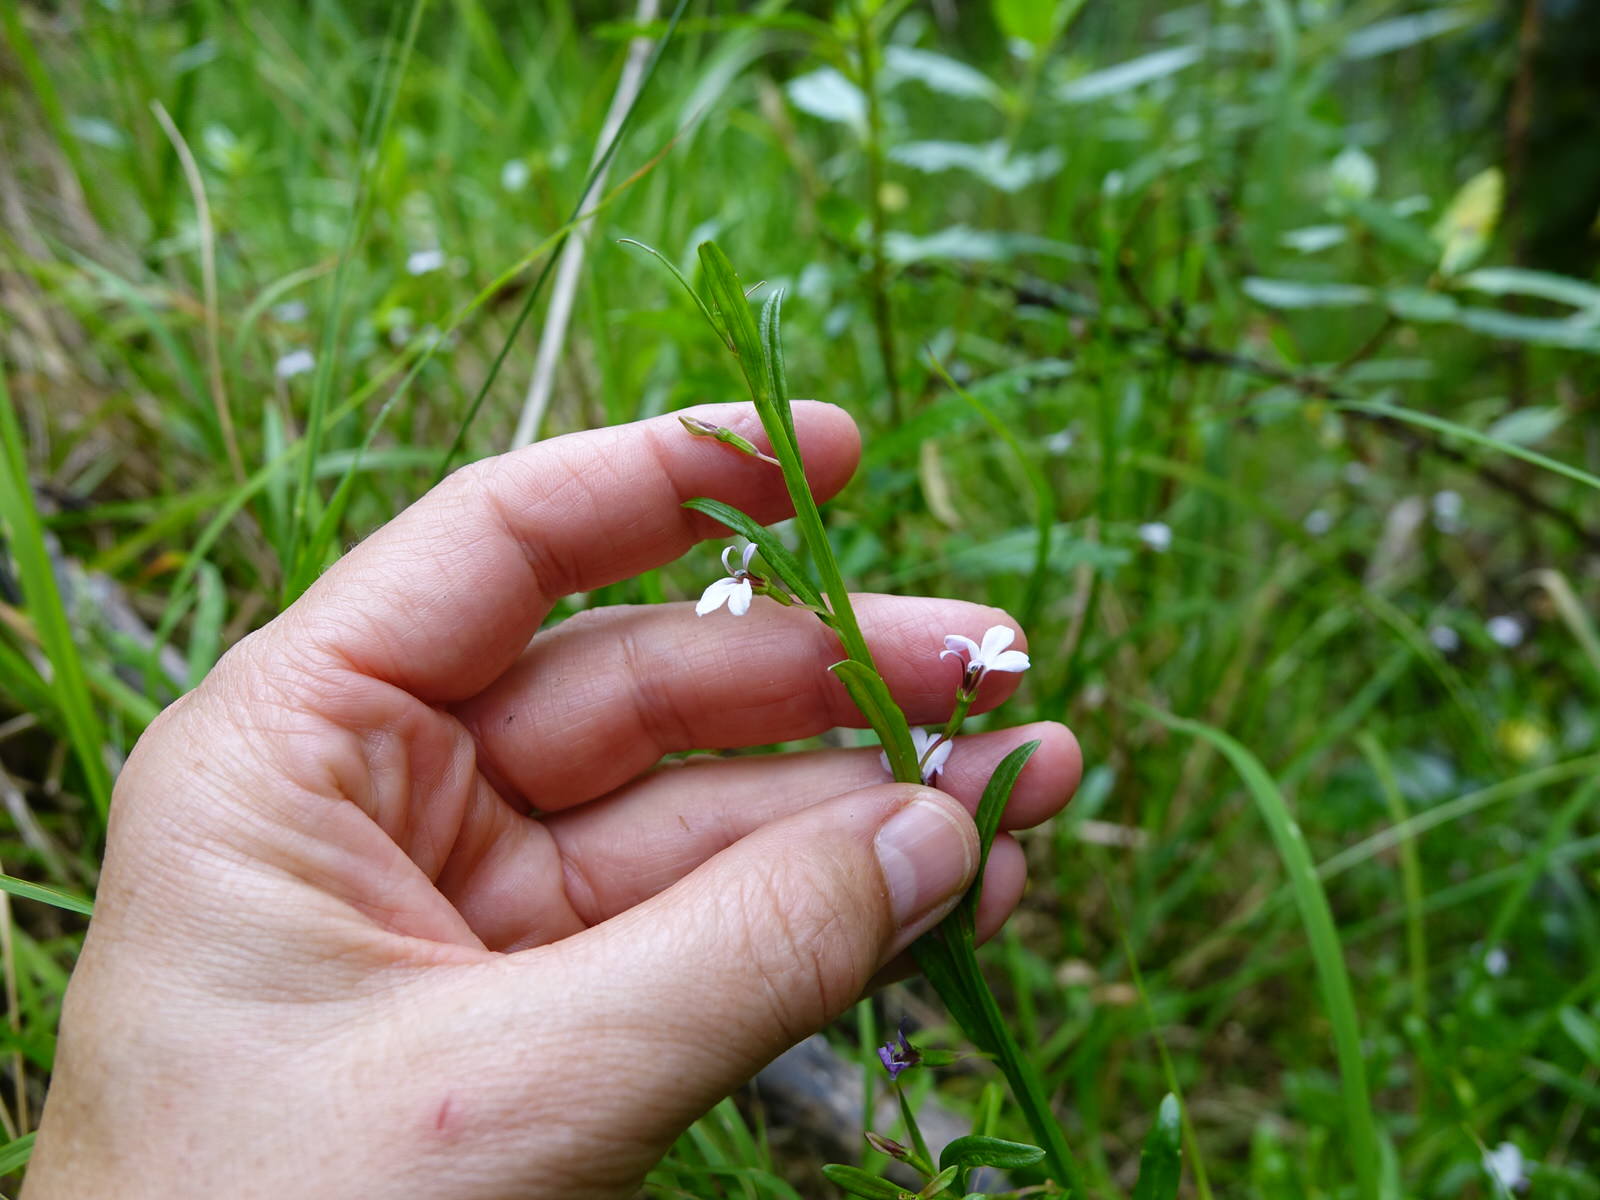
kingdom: Plantae
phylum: Tracheophyta
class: Magnoliopsida
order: Asterales
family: Campanulaceae
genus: Lobelia
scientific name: Lobelia anceps
